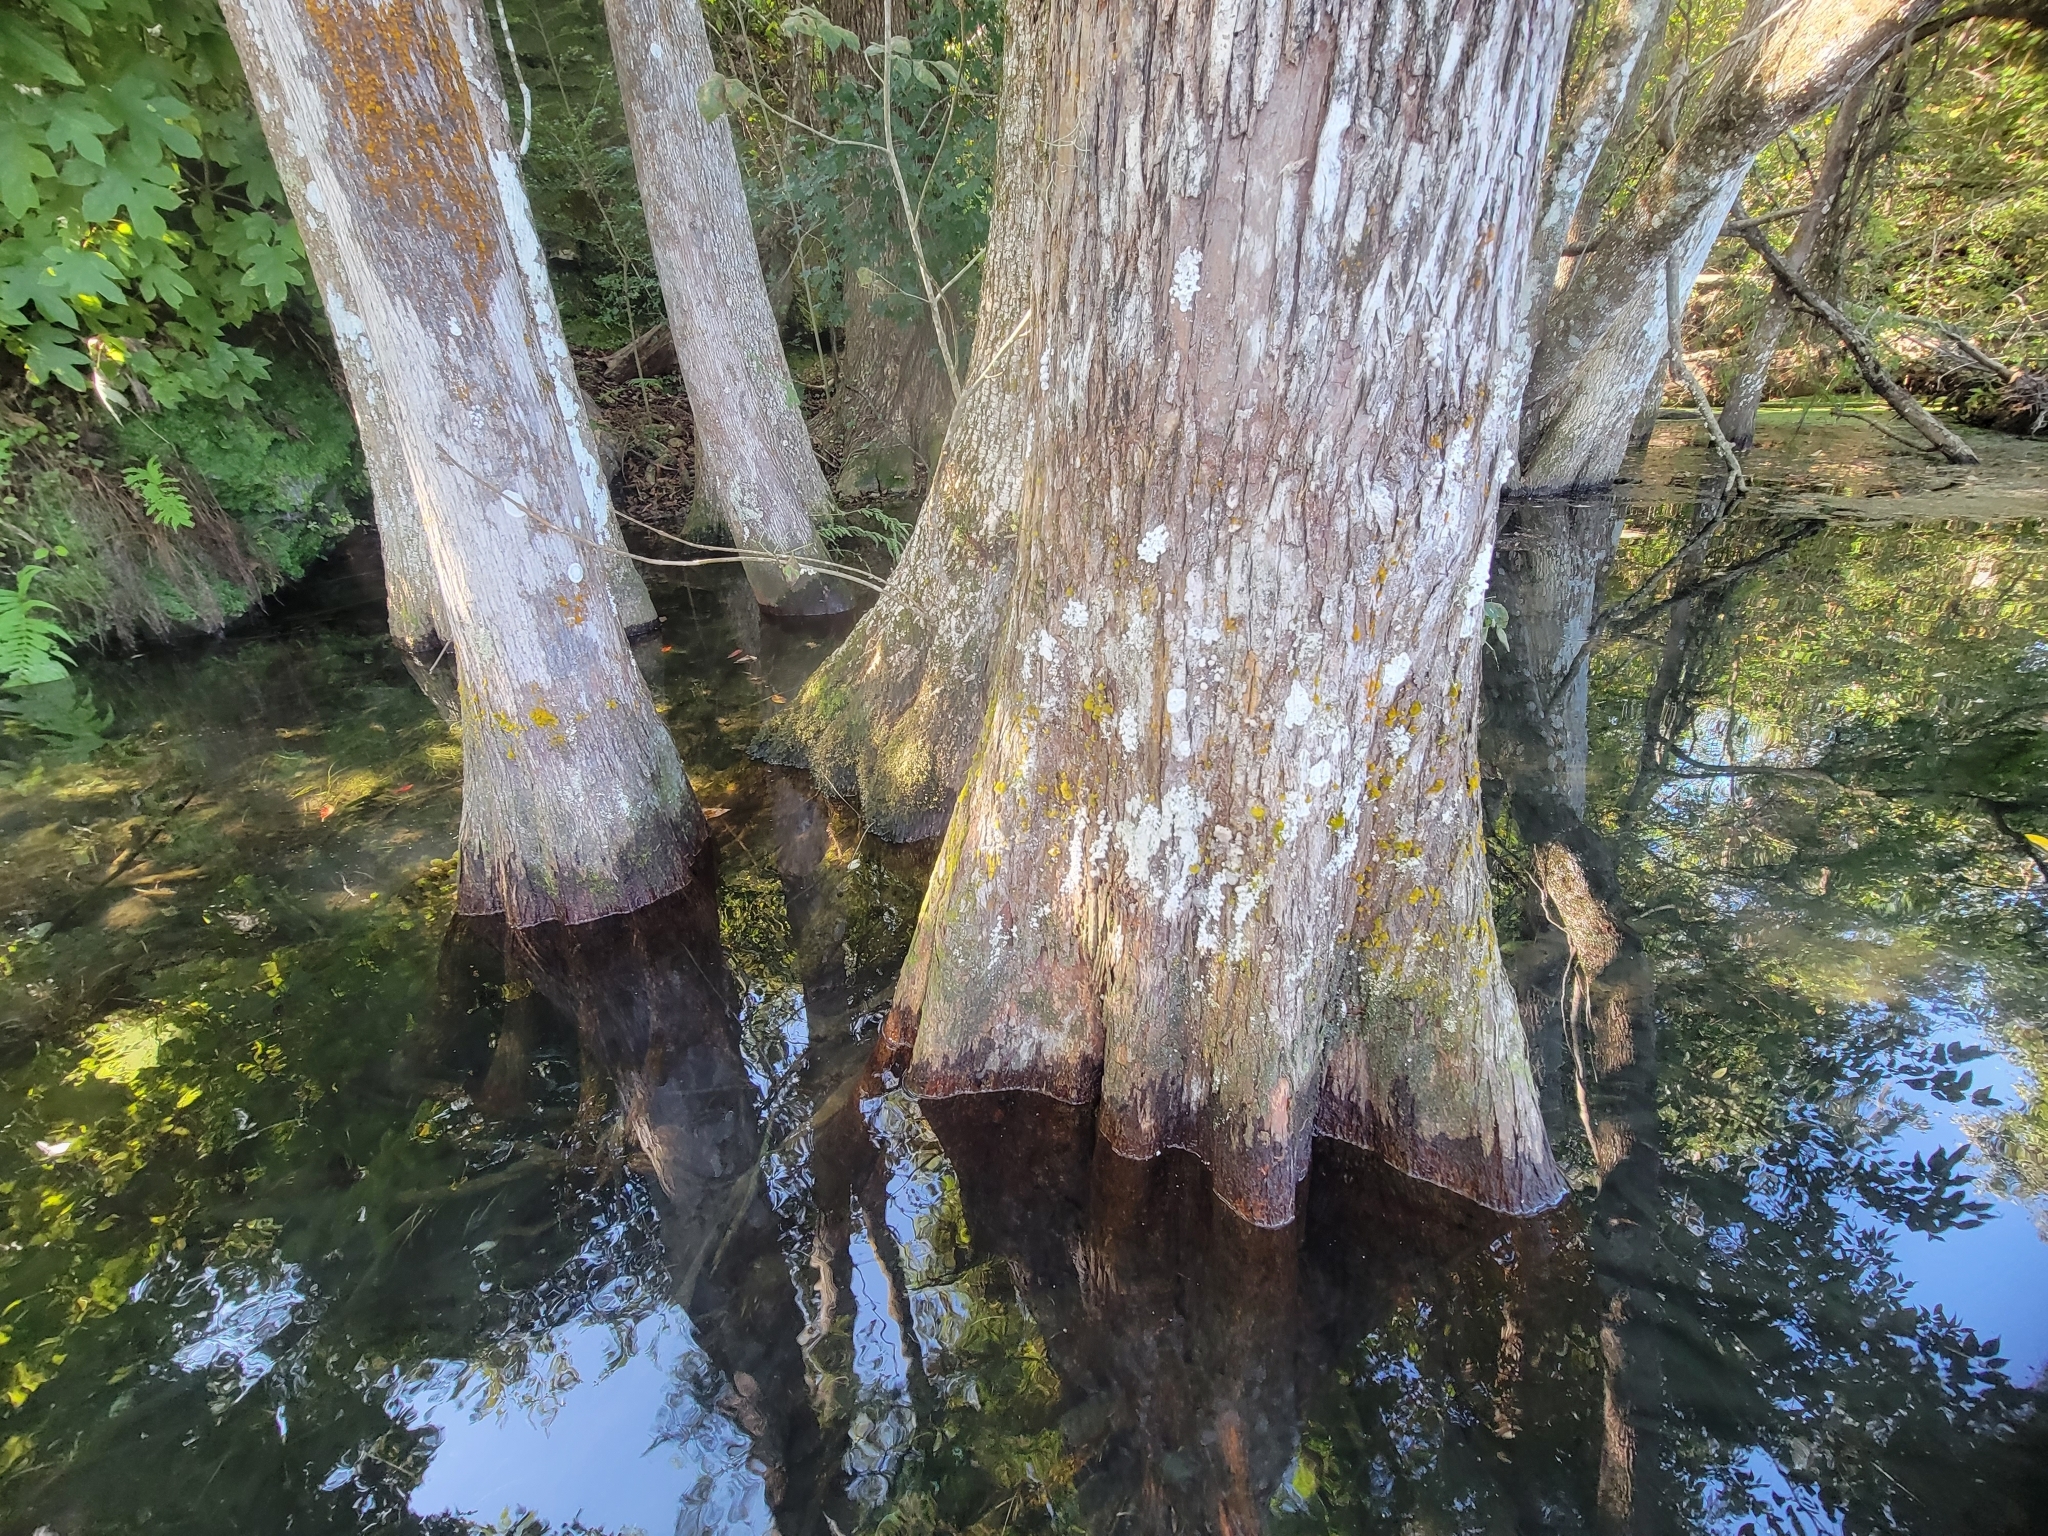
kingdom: Animalia
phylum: Mollusca
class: Gastropoda
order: Architaenioglossa
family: Ampullariidae
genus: Pomacea
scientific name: Pomacea paludosa
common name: Florida applesnail
